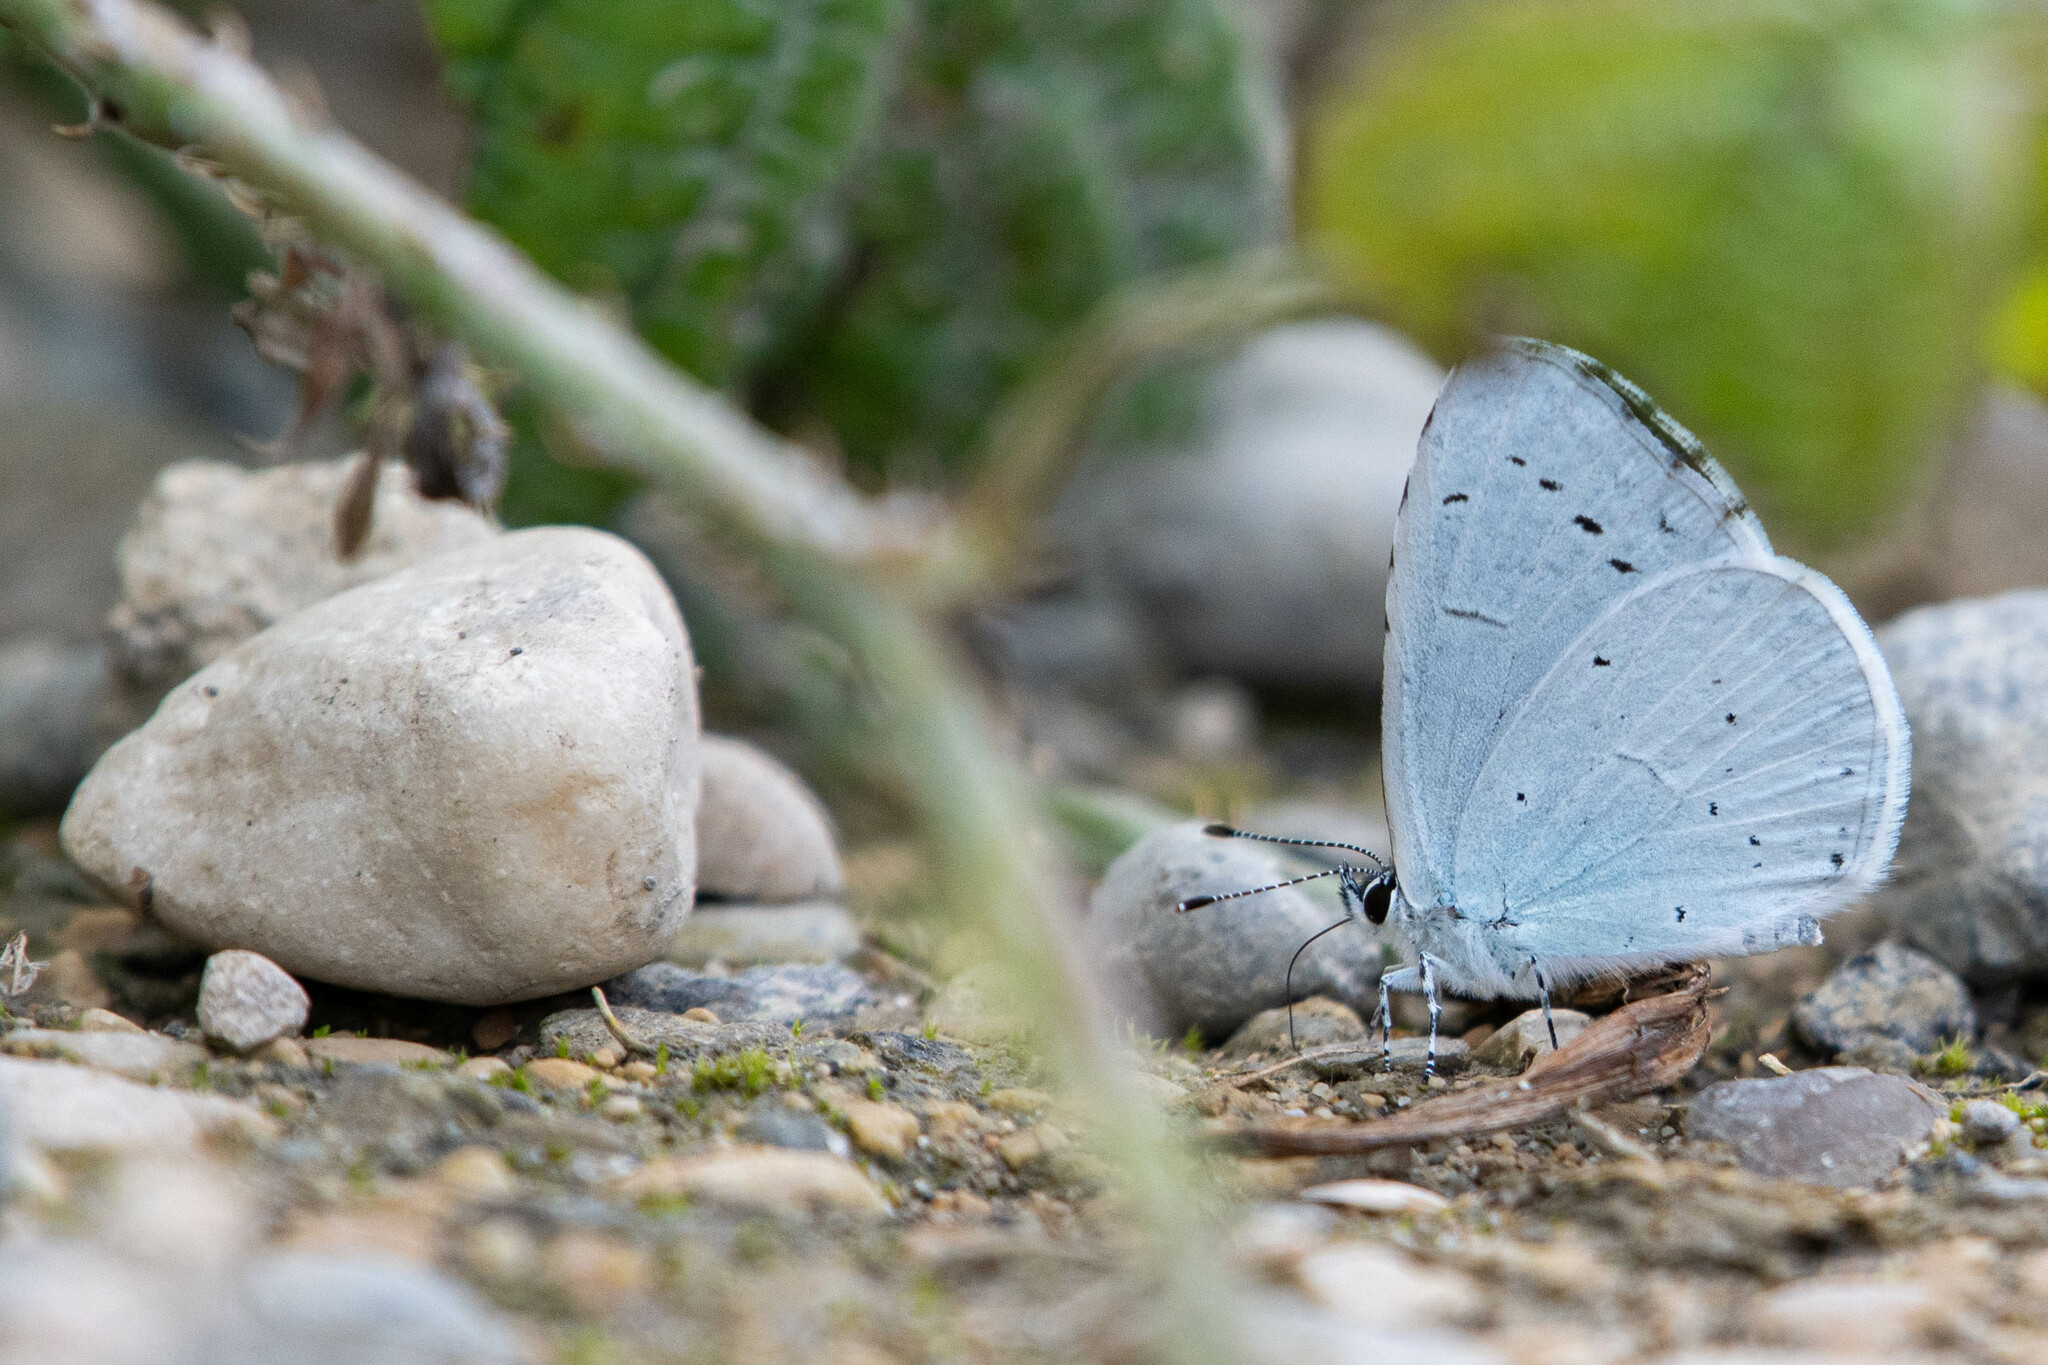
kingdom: Animalia
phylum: Arthropoda
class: Insecta
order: Lepidoptera
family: Lycaenidae
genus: Celastrina
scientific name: Celastrina argiolus
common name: Holly blue
